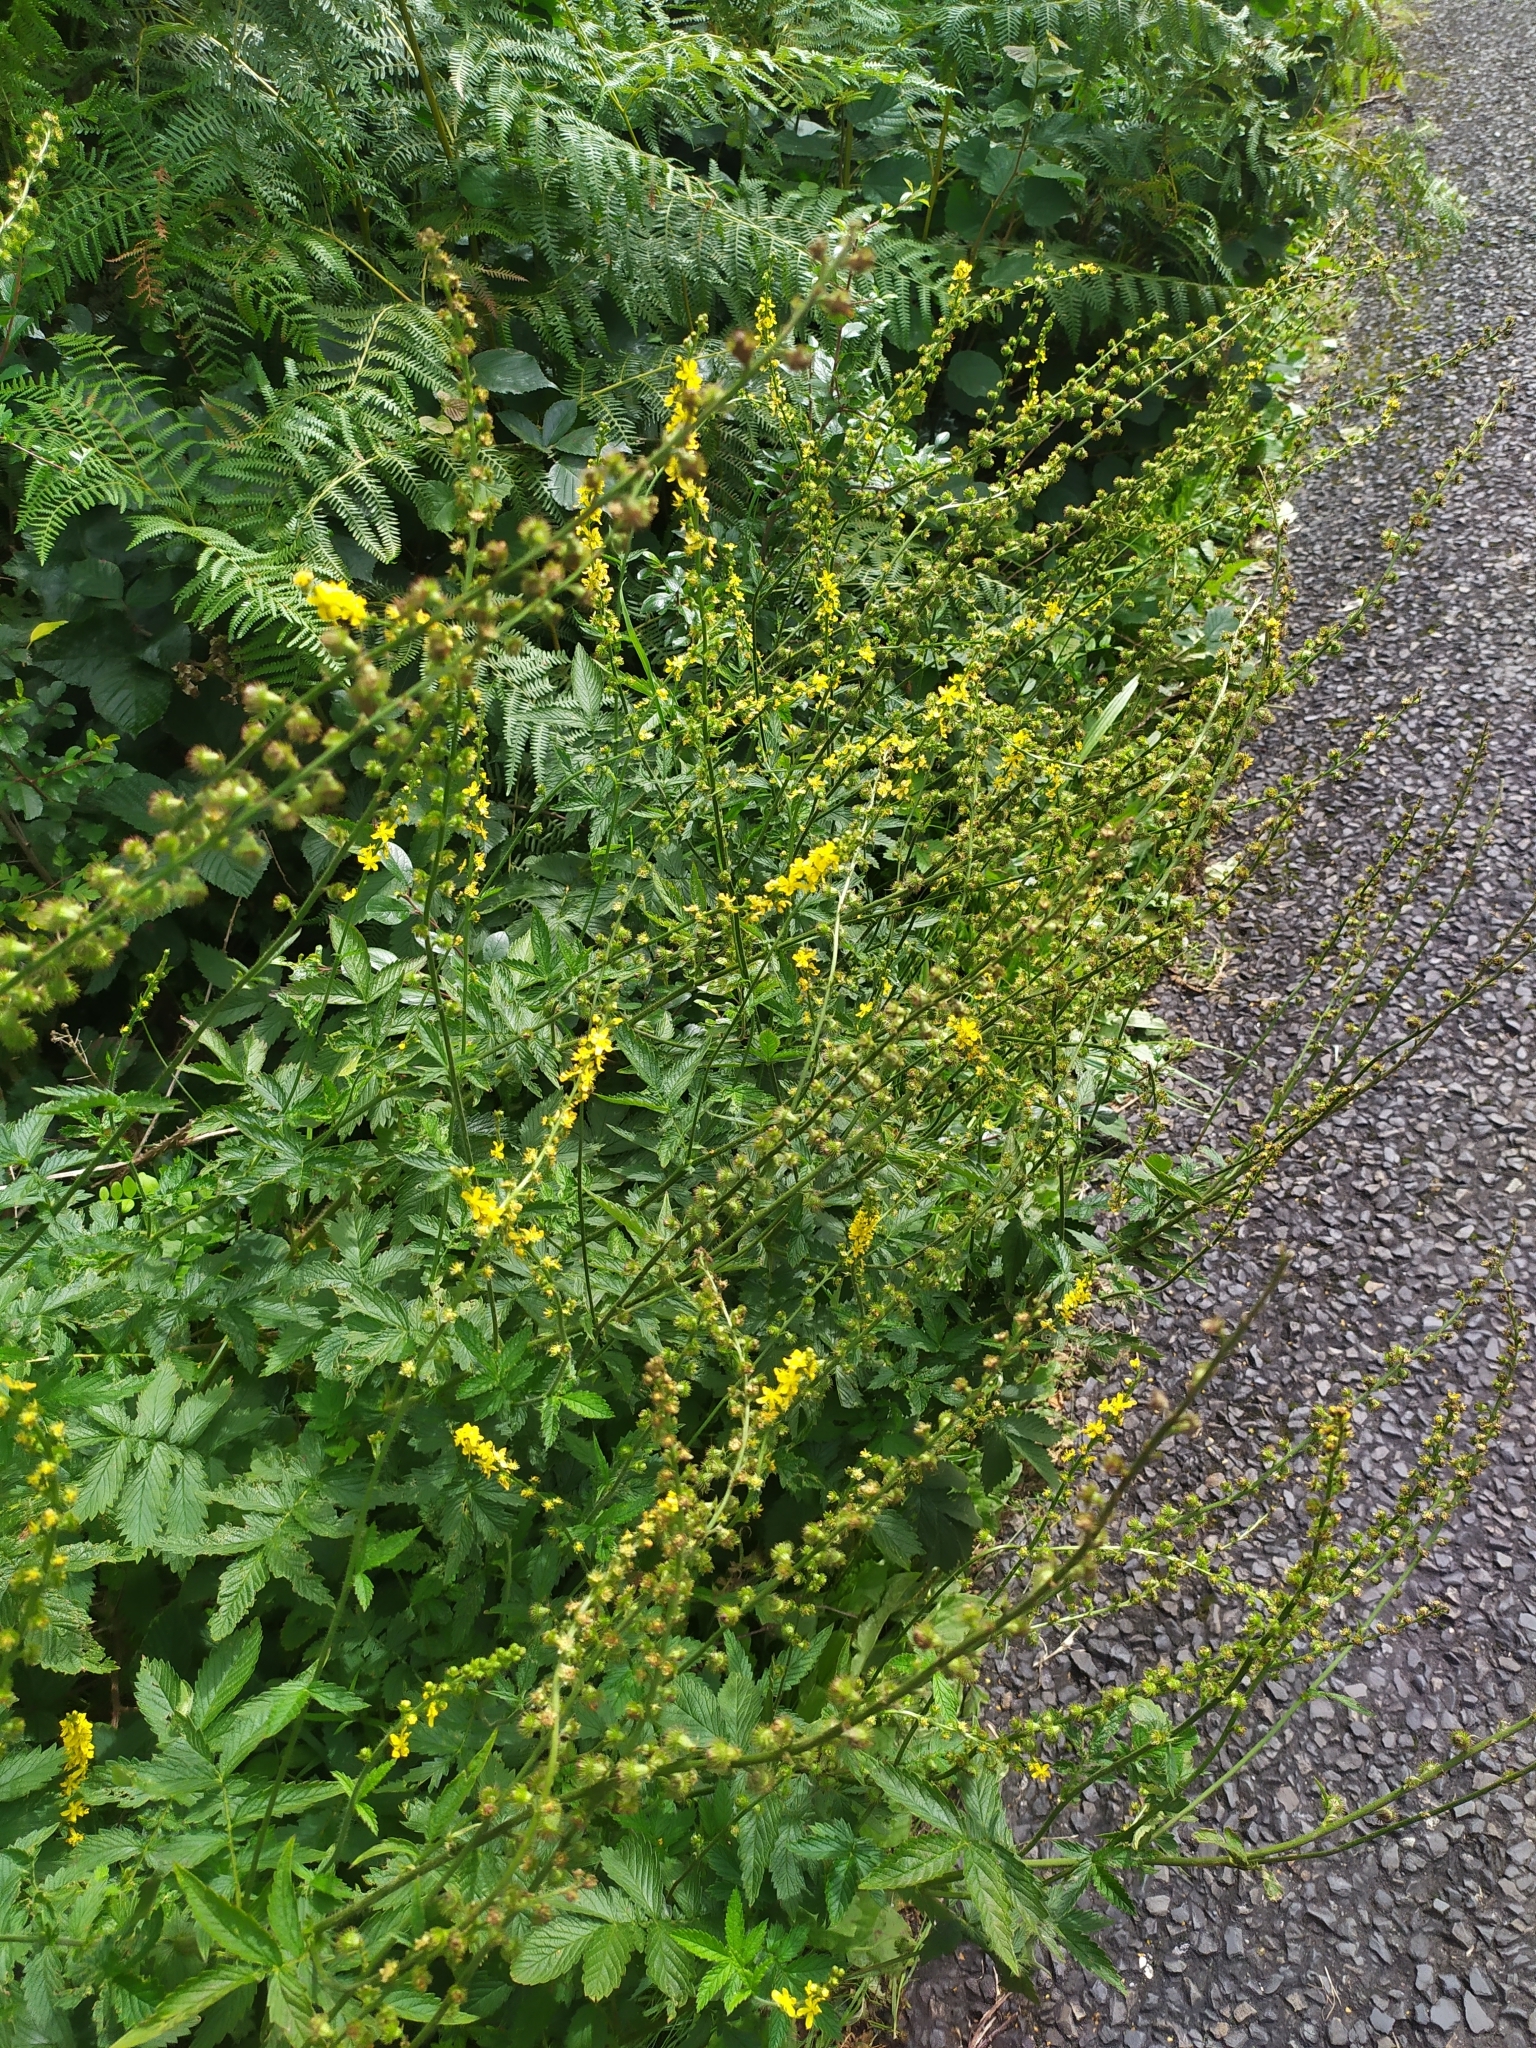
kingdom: Plantae
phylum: Tracheophyta
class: Magnoliopsida
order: Rosales
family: Rosaceae
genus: Agrimonia
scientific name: Agrimonia procera
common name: Fragrant agrimony
